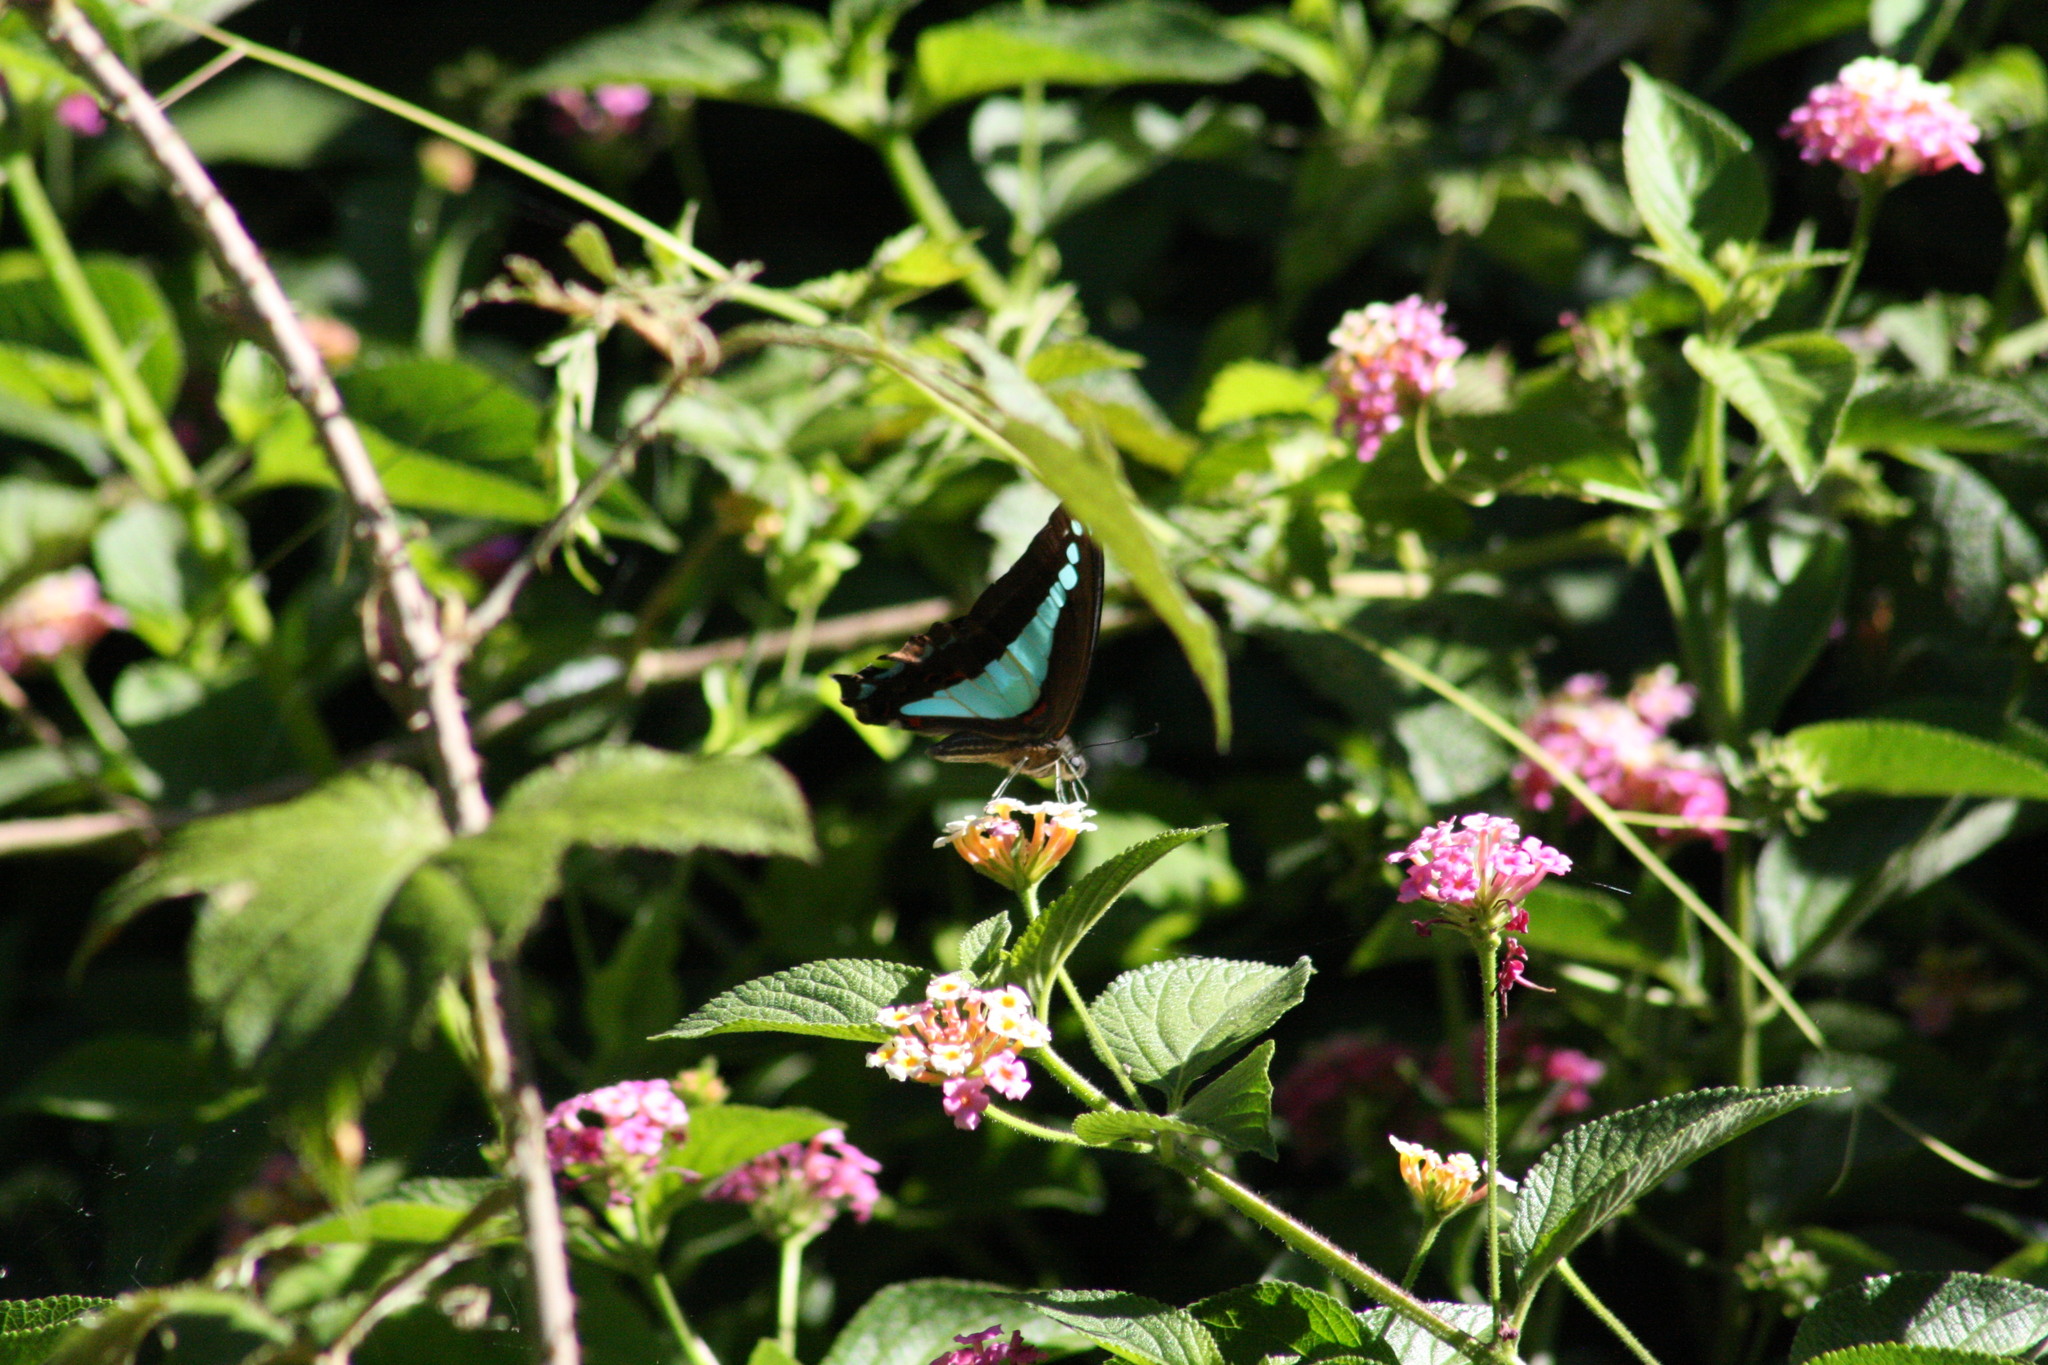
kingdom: Animalia
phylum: Arthropoda
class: Insecta
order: Lepidoptera
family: Papilionidae
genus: Graphium
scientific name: Graphium
